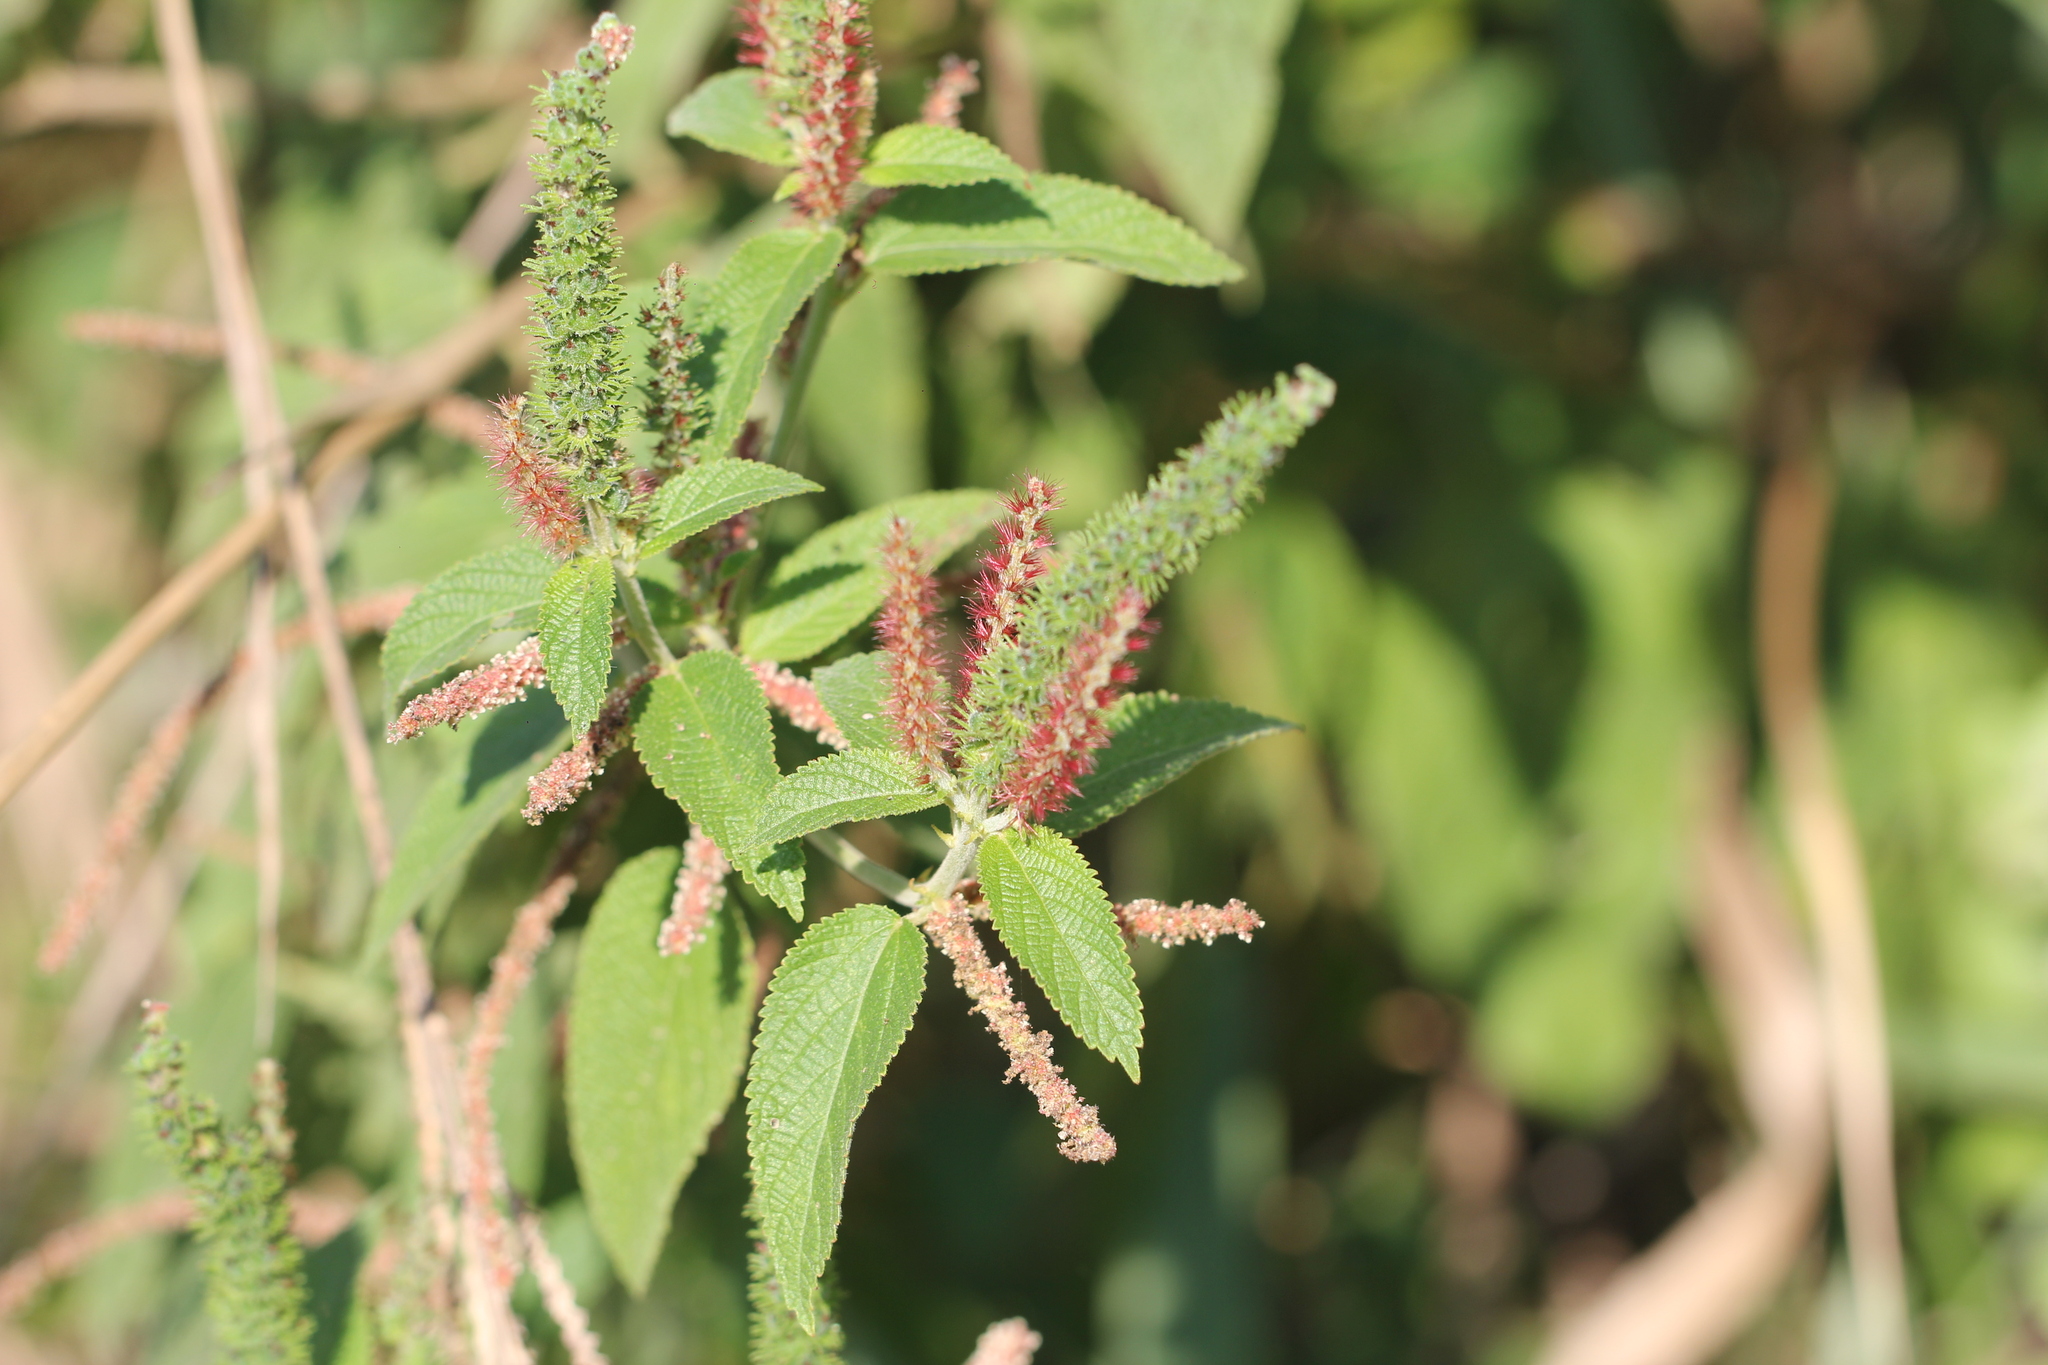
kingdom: Plantae
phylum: Tracheophyta
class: Magnoliopsida
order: Malpighiales
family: Euphorbiaceae
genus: Acalypha
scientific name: Acalypha communis
